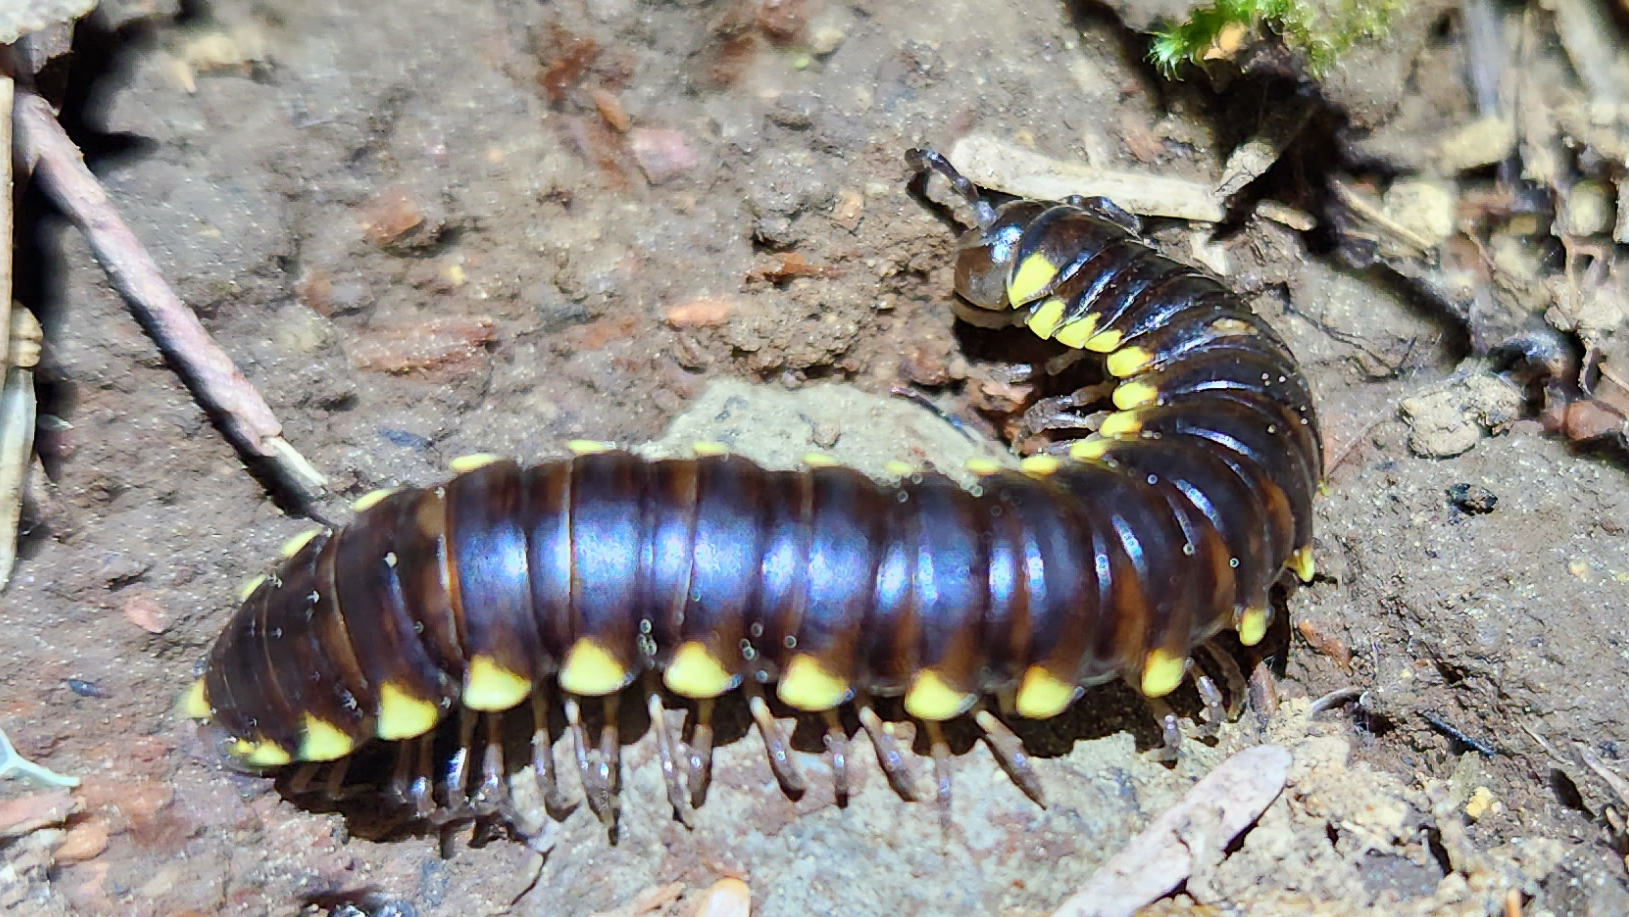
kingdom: Animalia
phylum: Arthropoda
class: Diplopoda
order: Polydesmida
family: Xystodesmidae
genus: Harpaphe
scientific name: Harpaphe haydeniana
